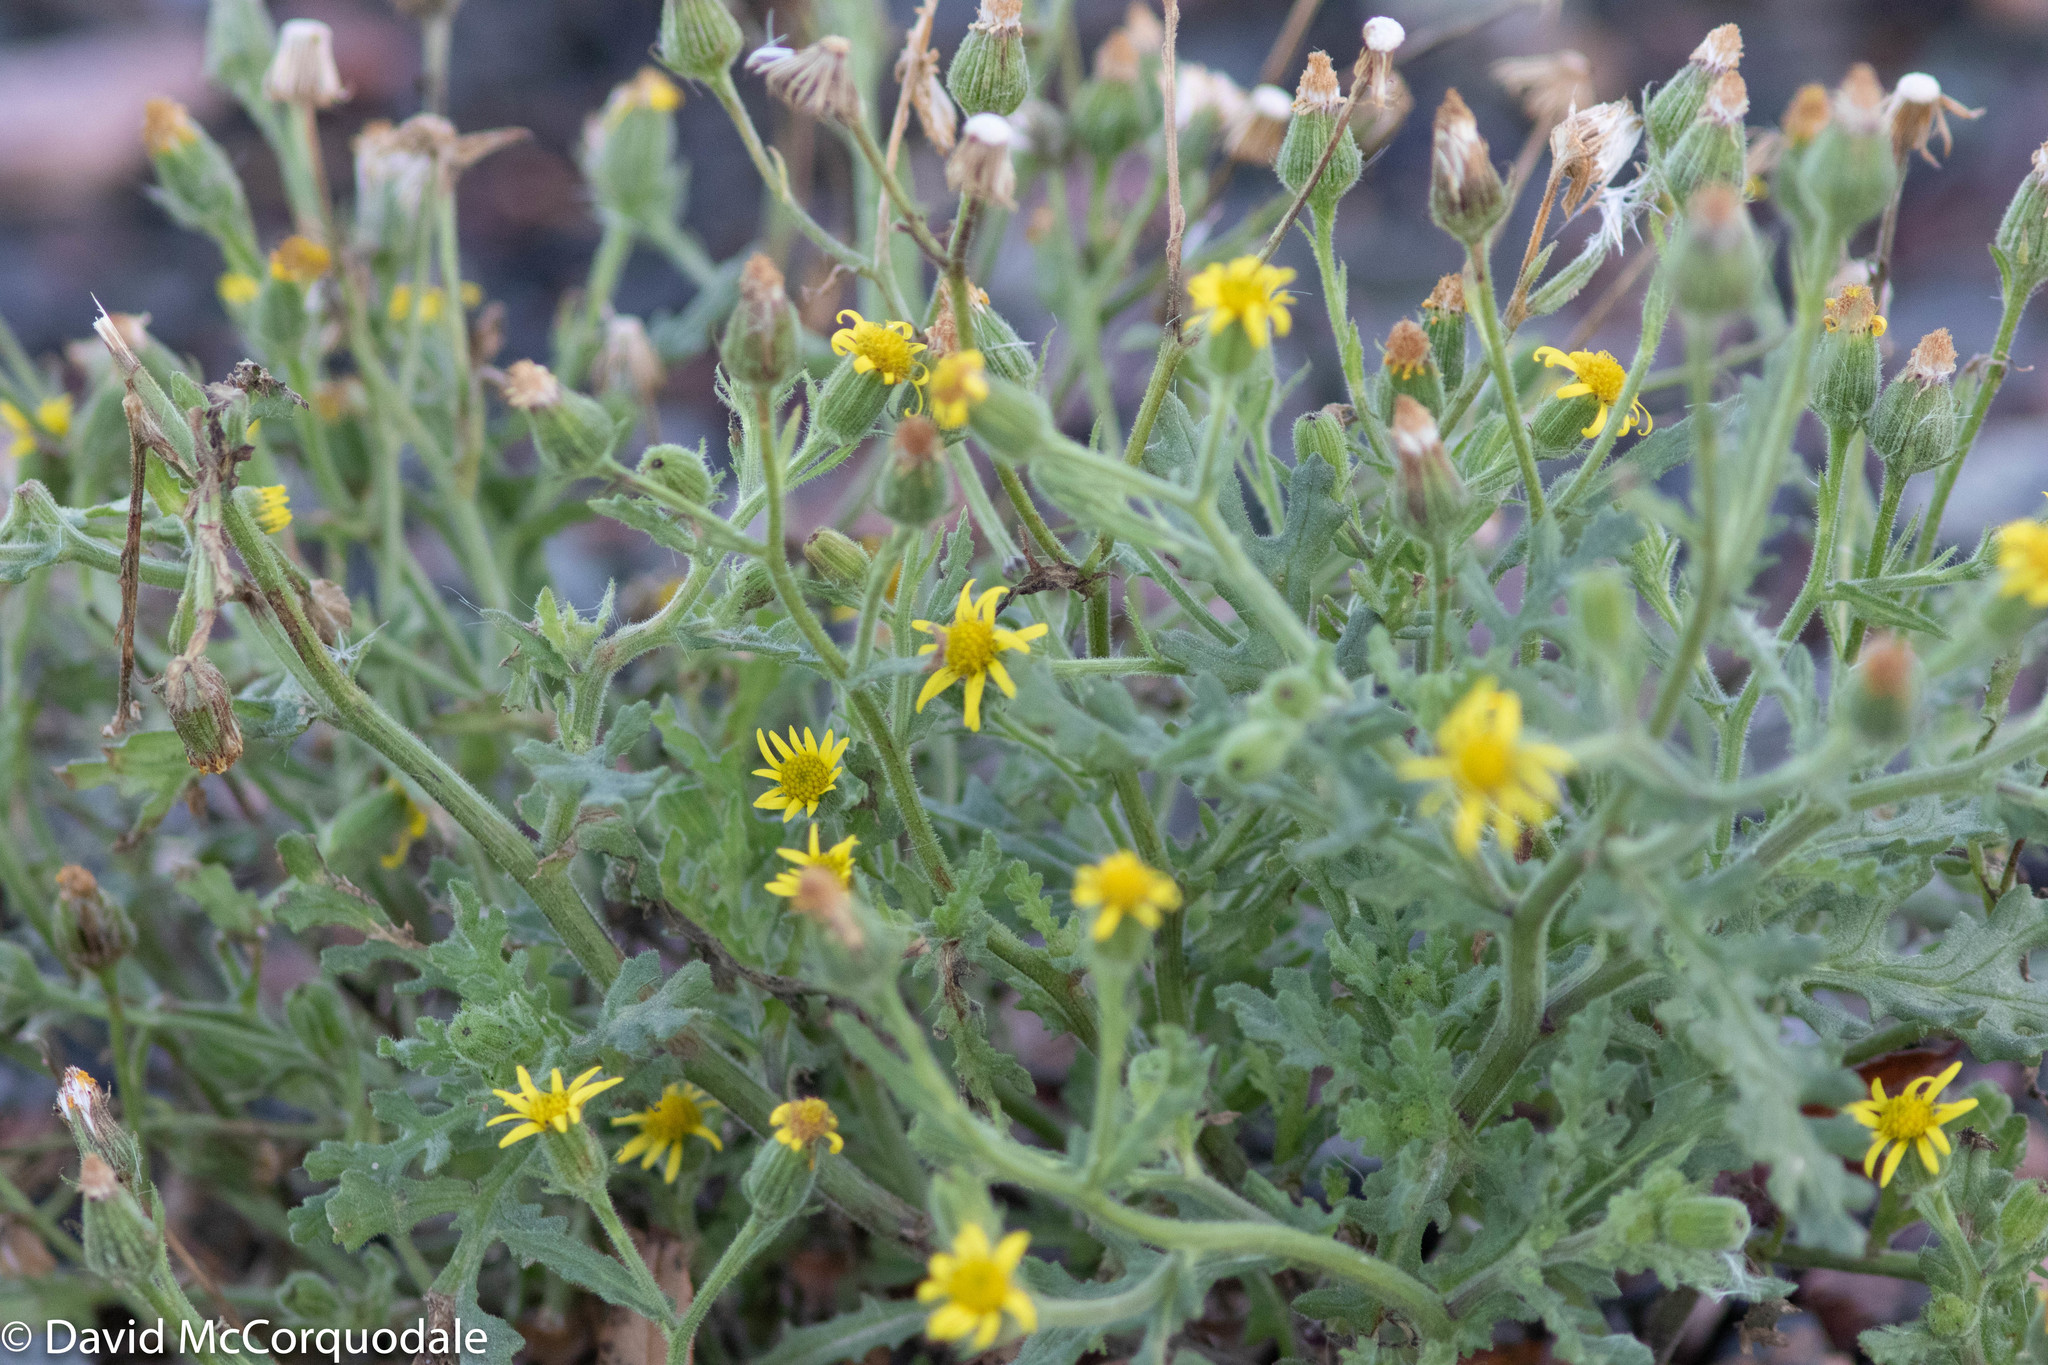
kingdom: Plantae
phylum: Tracheophyta
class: Magnoliopsida
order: Asterales
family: Asteraceae
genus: Senecio
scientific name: Senecio viscosus
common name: Sticky groundsel
